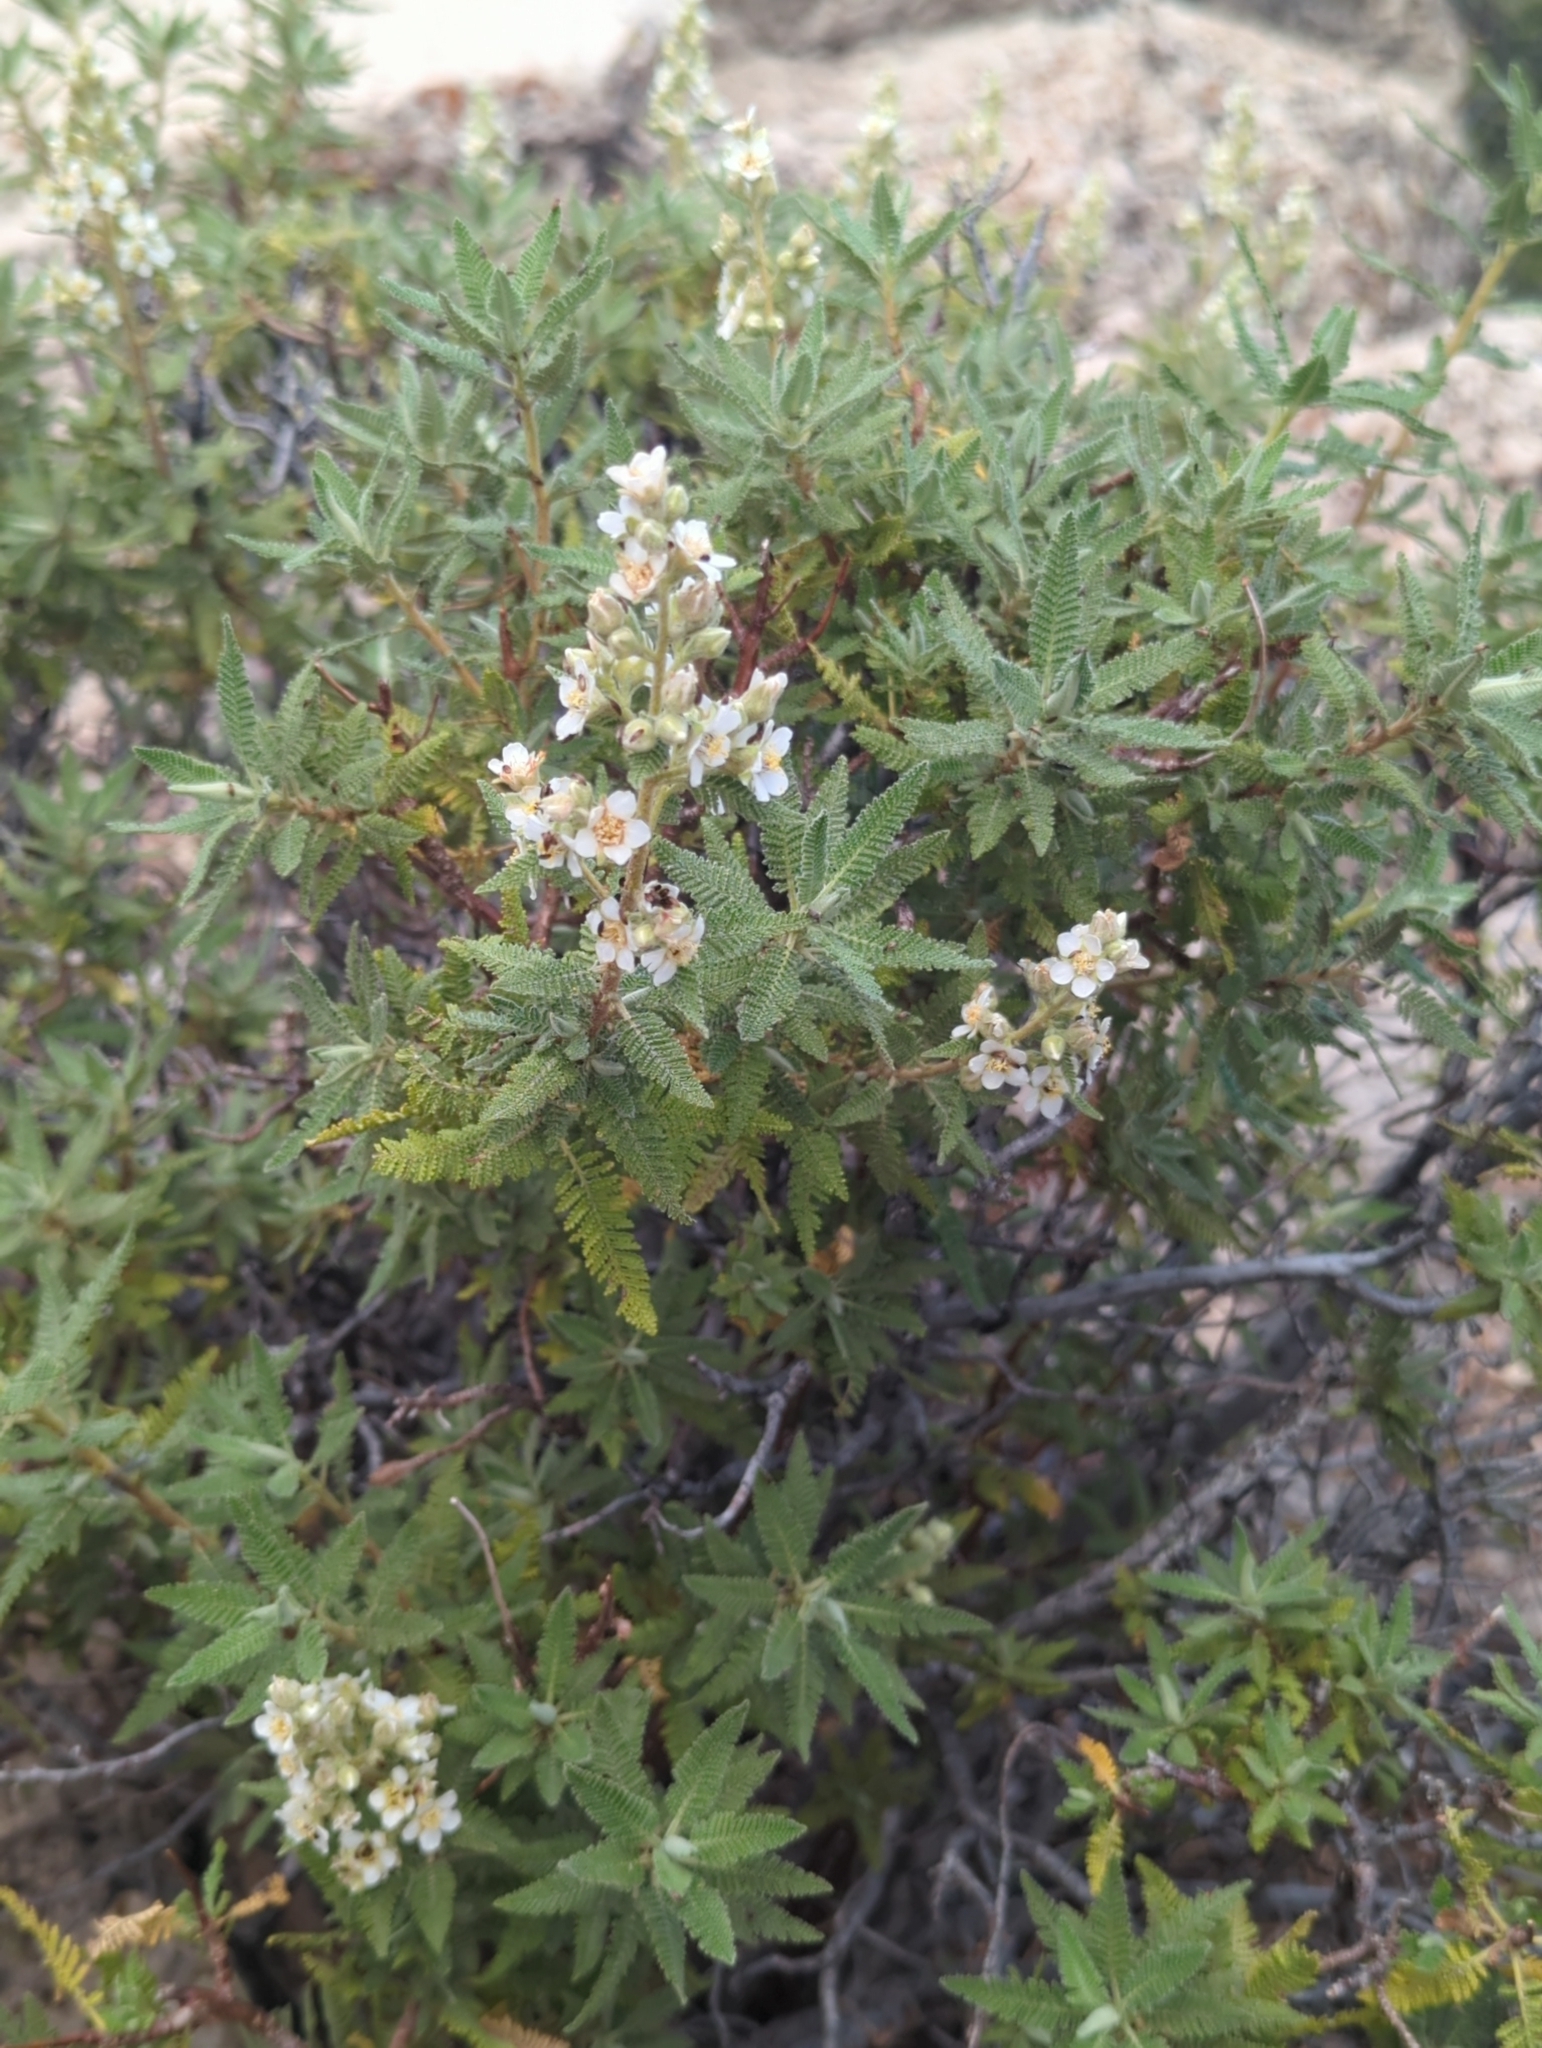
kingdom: Plantae
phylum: Tracheophyta
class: Magnoliopsida
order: Rosales
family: Rosaceae
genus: Chamaebatiaria
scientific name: Chamaebatiaria millefolium
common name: Fernbush
